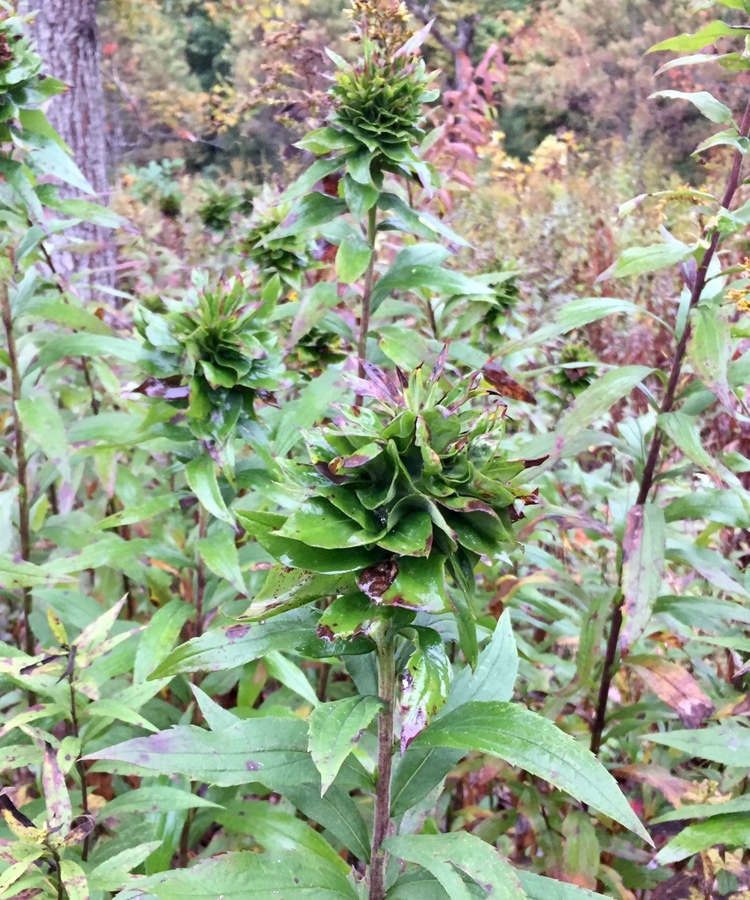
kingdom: Animalia
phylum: Arthropoda
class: Insecta
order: Diptera
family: Cecidomyiidae
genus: Rhopalomyia
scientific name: Rhopalomyia solidaginis
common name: Goldenrod bunch gall midge
